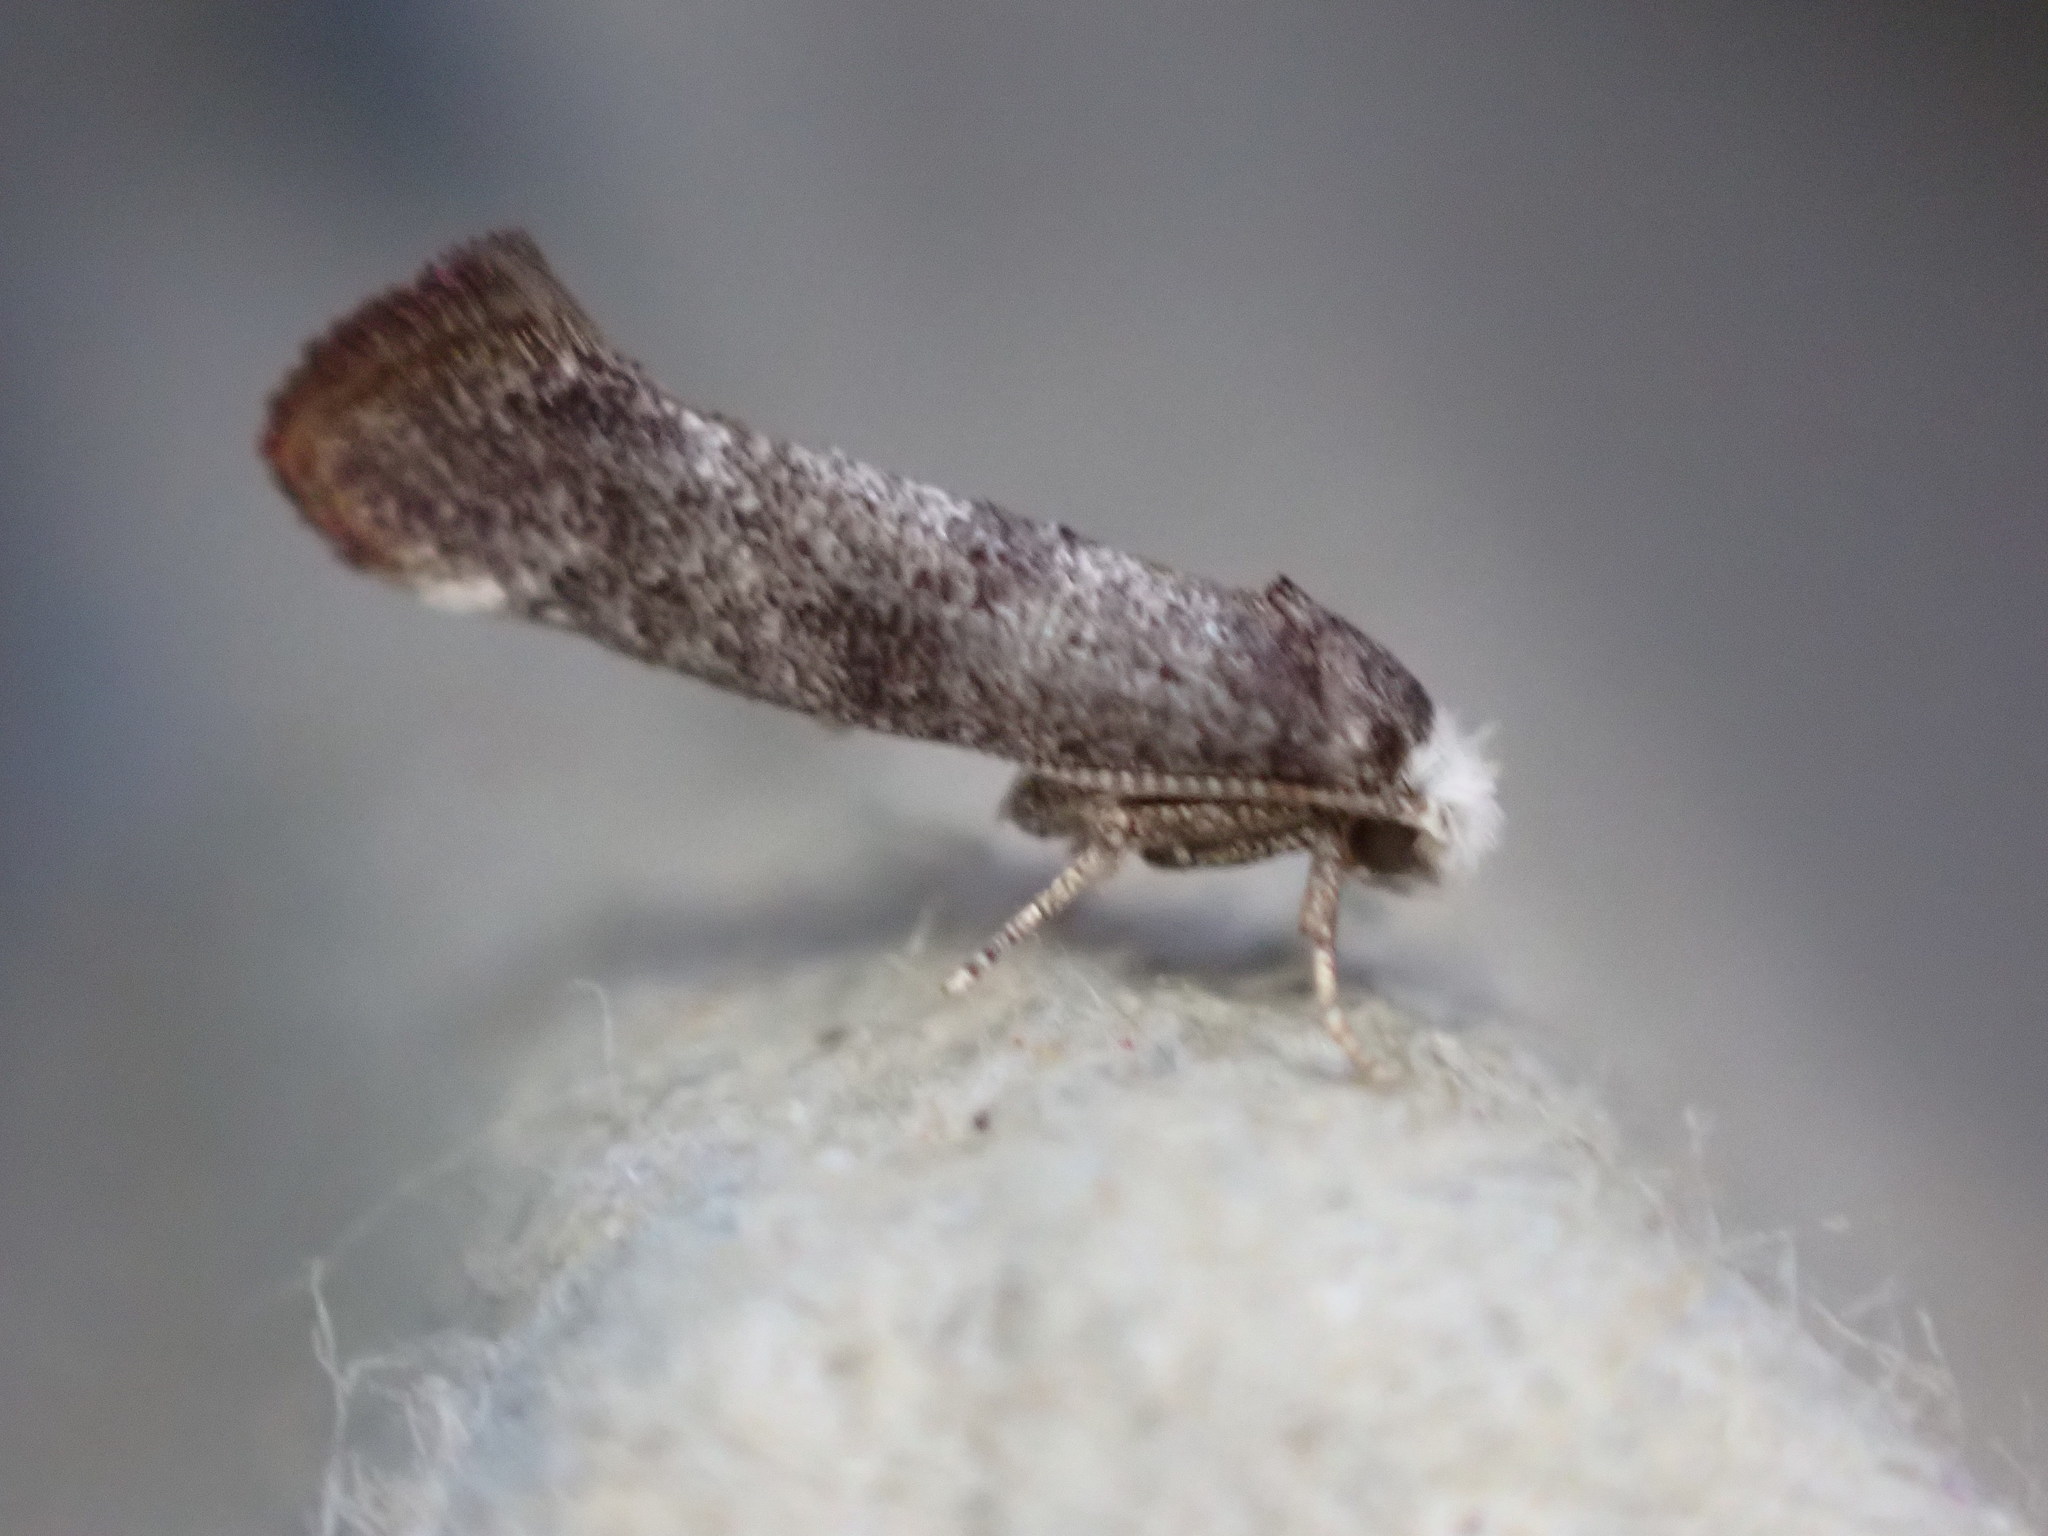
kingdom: Animalia
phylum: Arthropoda
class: Insecta
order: Lepidoptera
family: Yponomeutidae
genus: Swammerdamia
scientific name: Swammerdamia pyrella
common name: Little ermine moth
